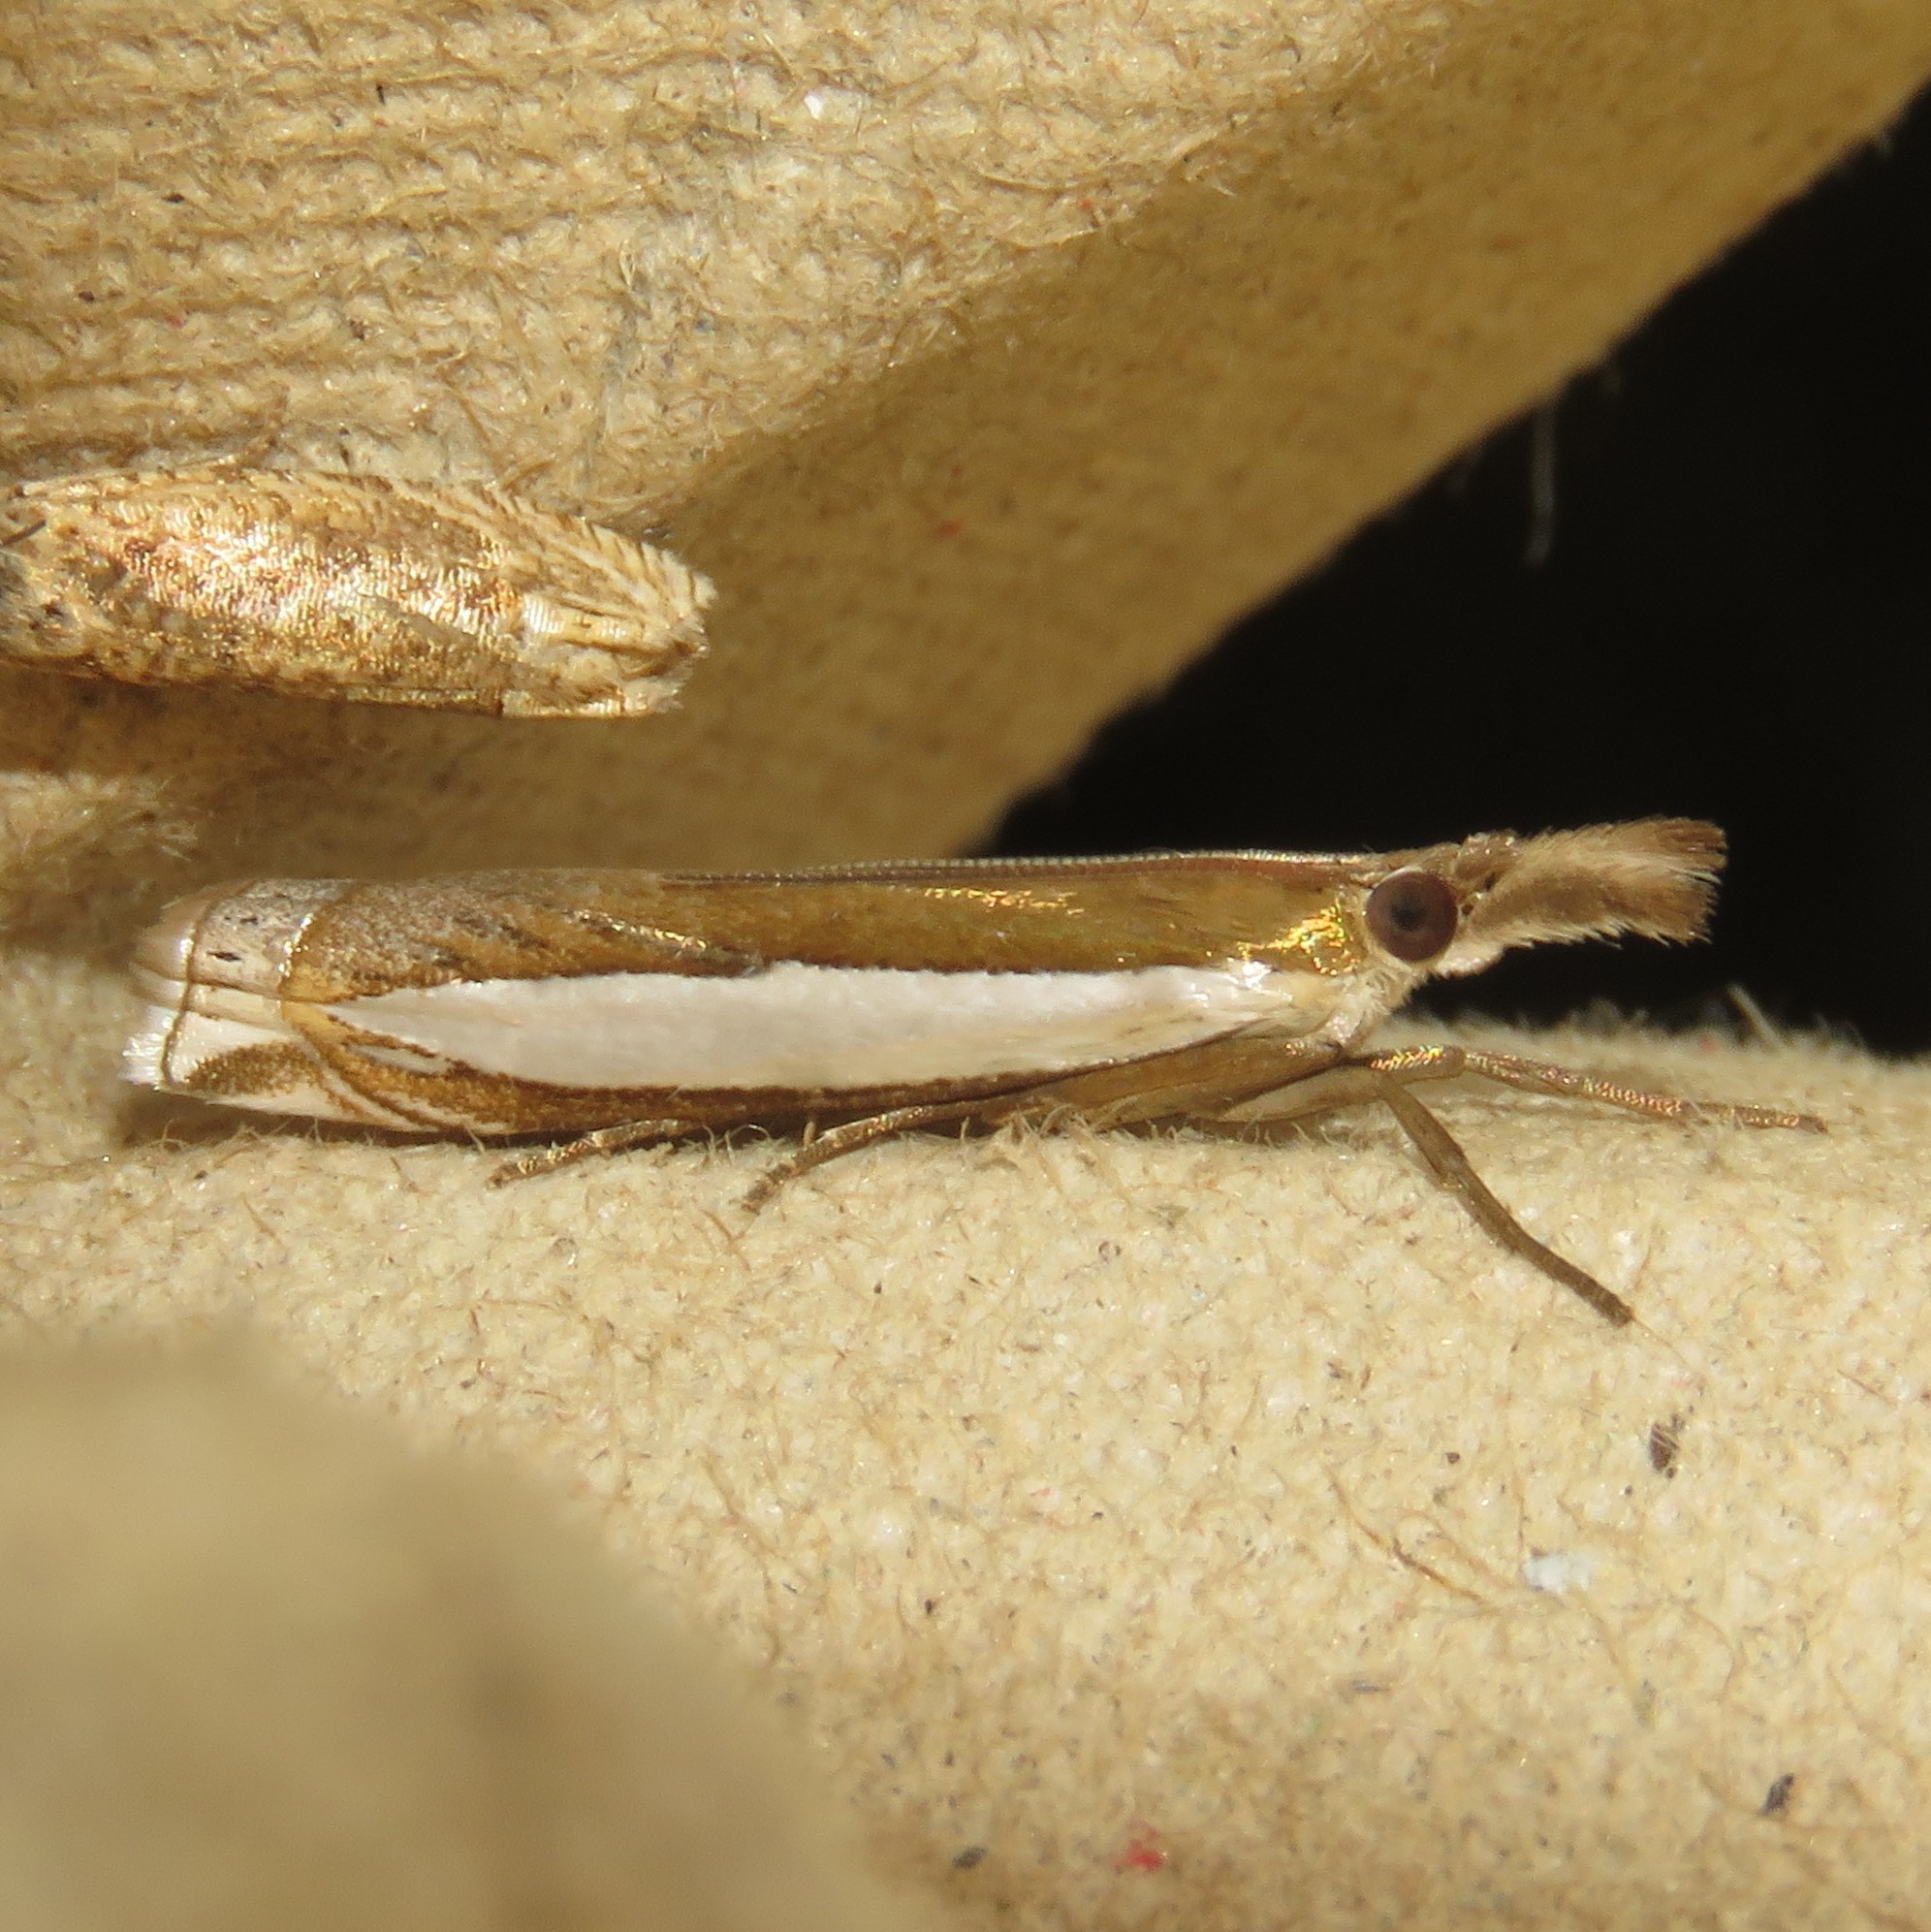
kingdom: Animalia
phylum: Arthropoda
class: Insecta
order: Lepidoptera
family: Crambidae
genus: Crambus
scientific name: Crambus leachellus
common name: Leach's grass-veneer
